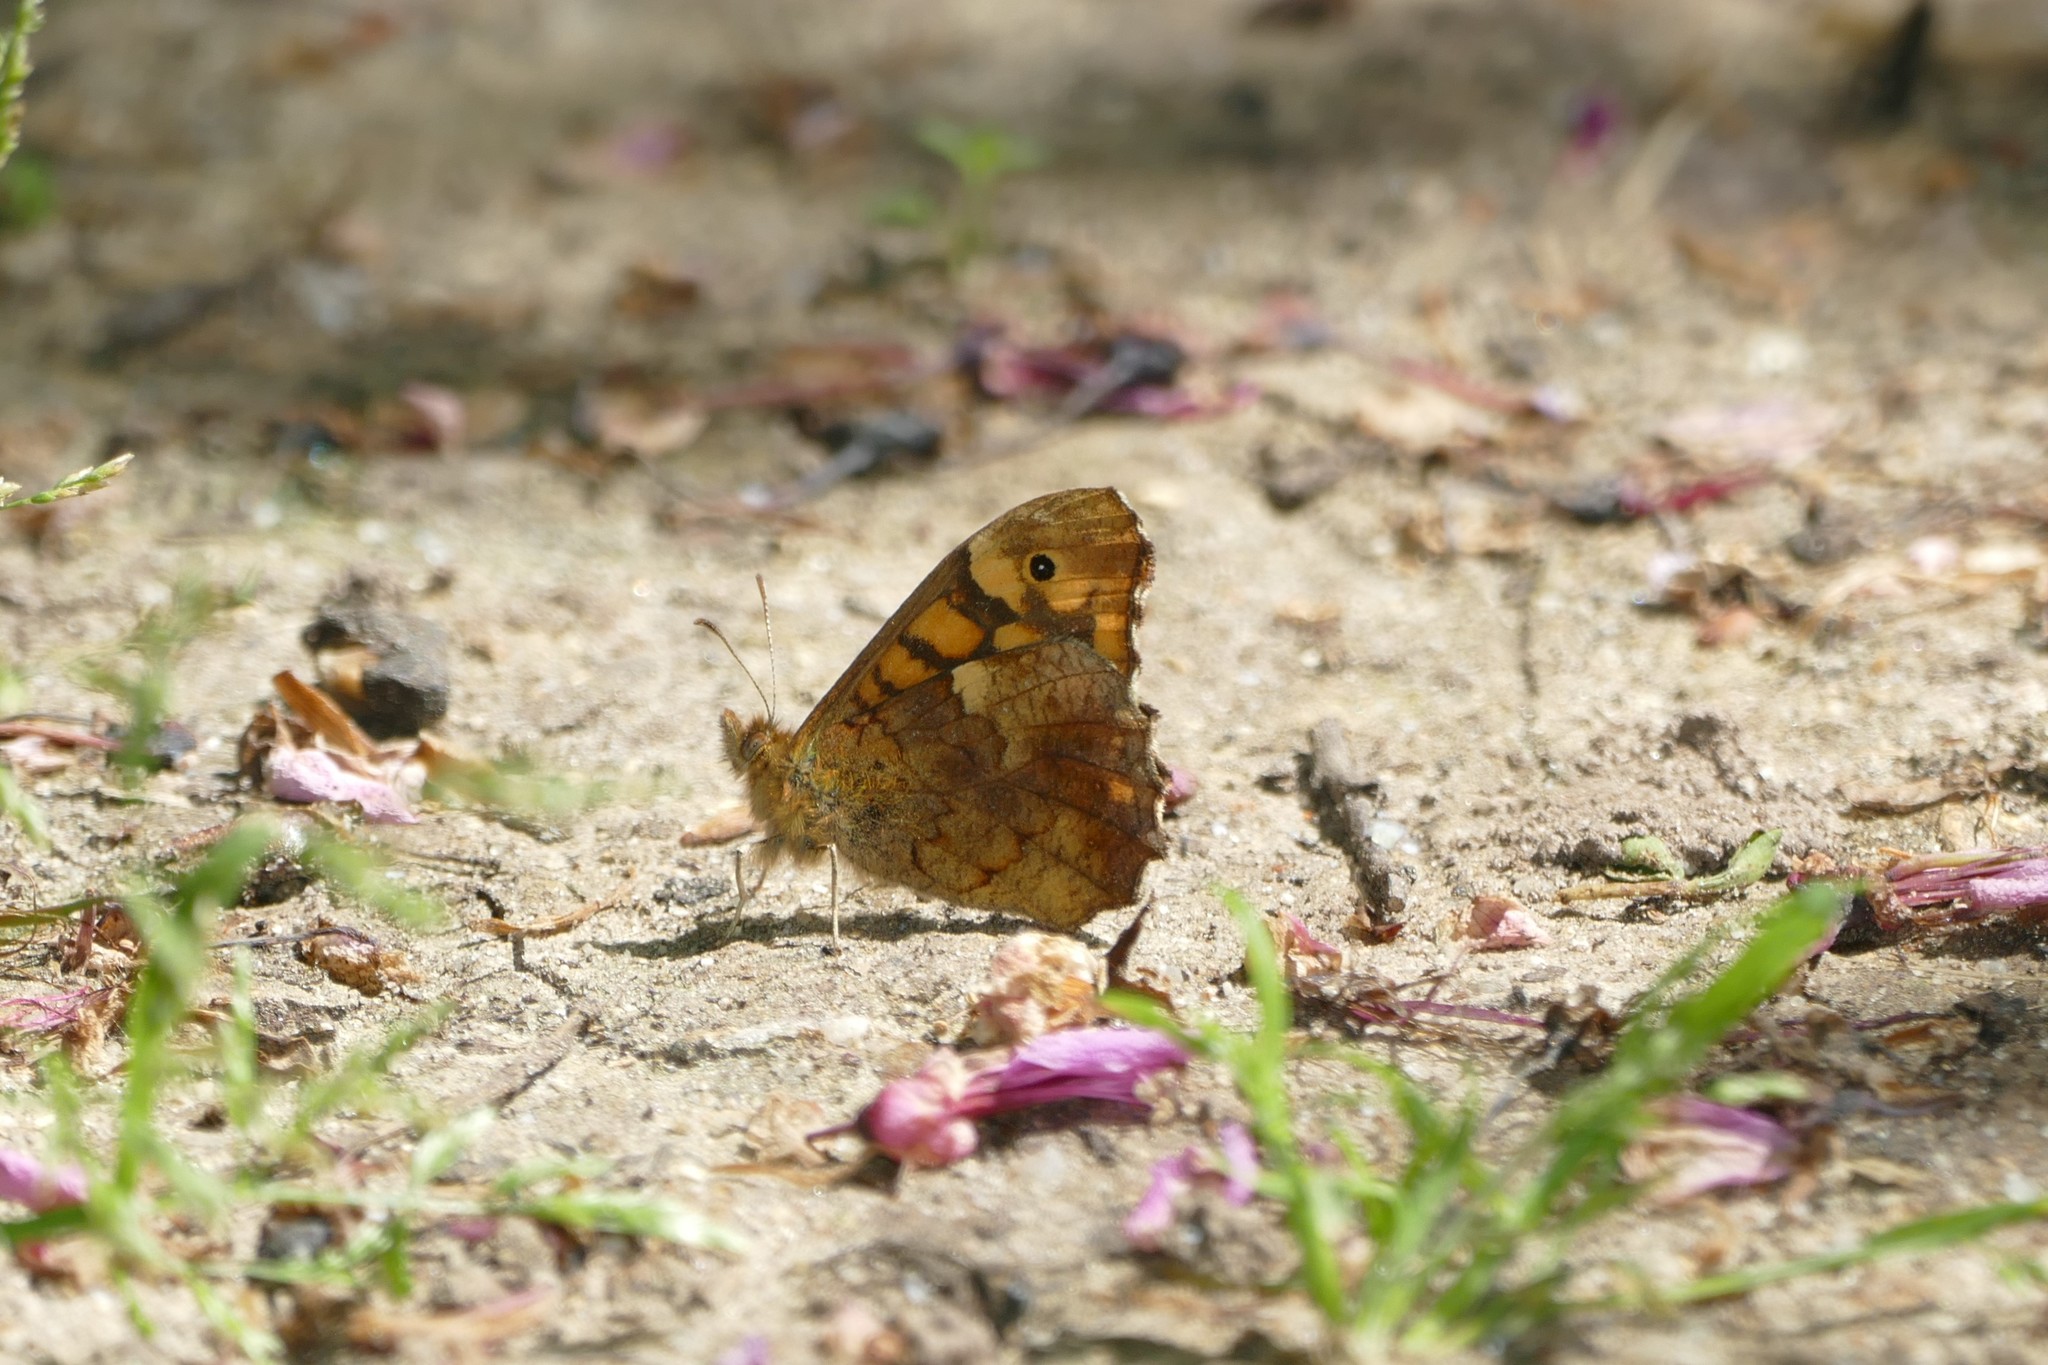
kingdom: Animalia
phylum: Arthropoda
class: Insecta
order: Lepidoptera
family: Nymphalidae
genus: Pararge
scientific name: Pararge aegeria
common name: Speckled wood
